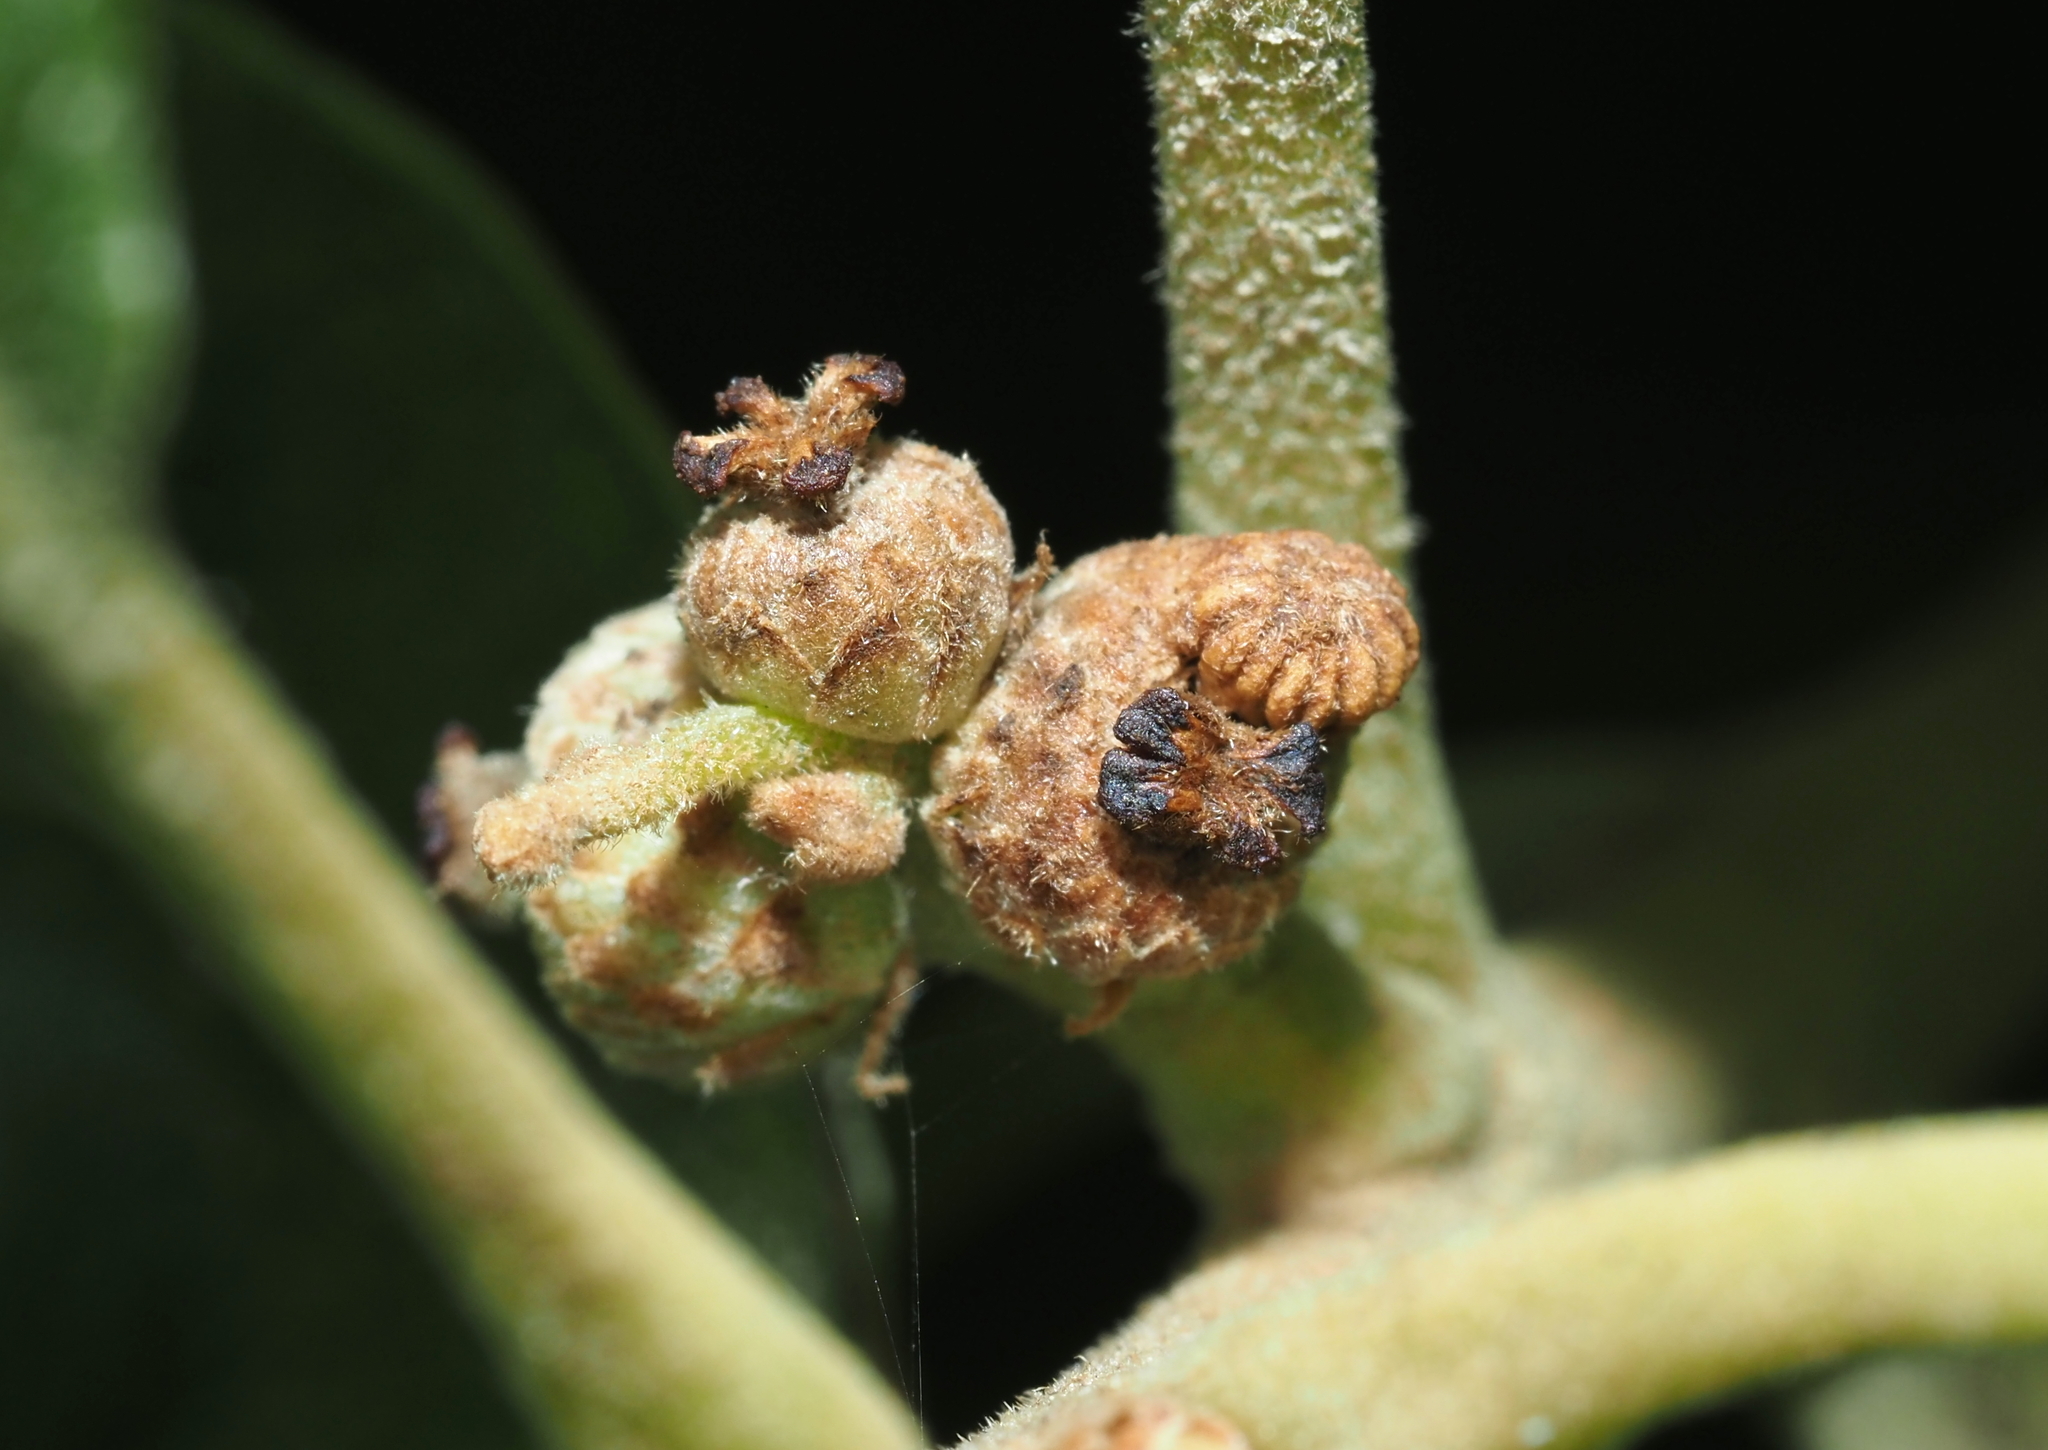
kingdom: Animalia
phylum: Arthropoda
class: Insecta
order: Hymenoptera
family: Cynipidae
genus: Callirhytis
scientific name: Callirhytis
